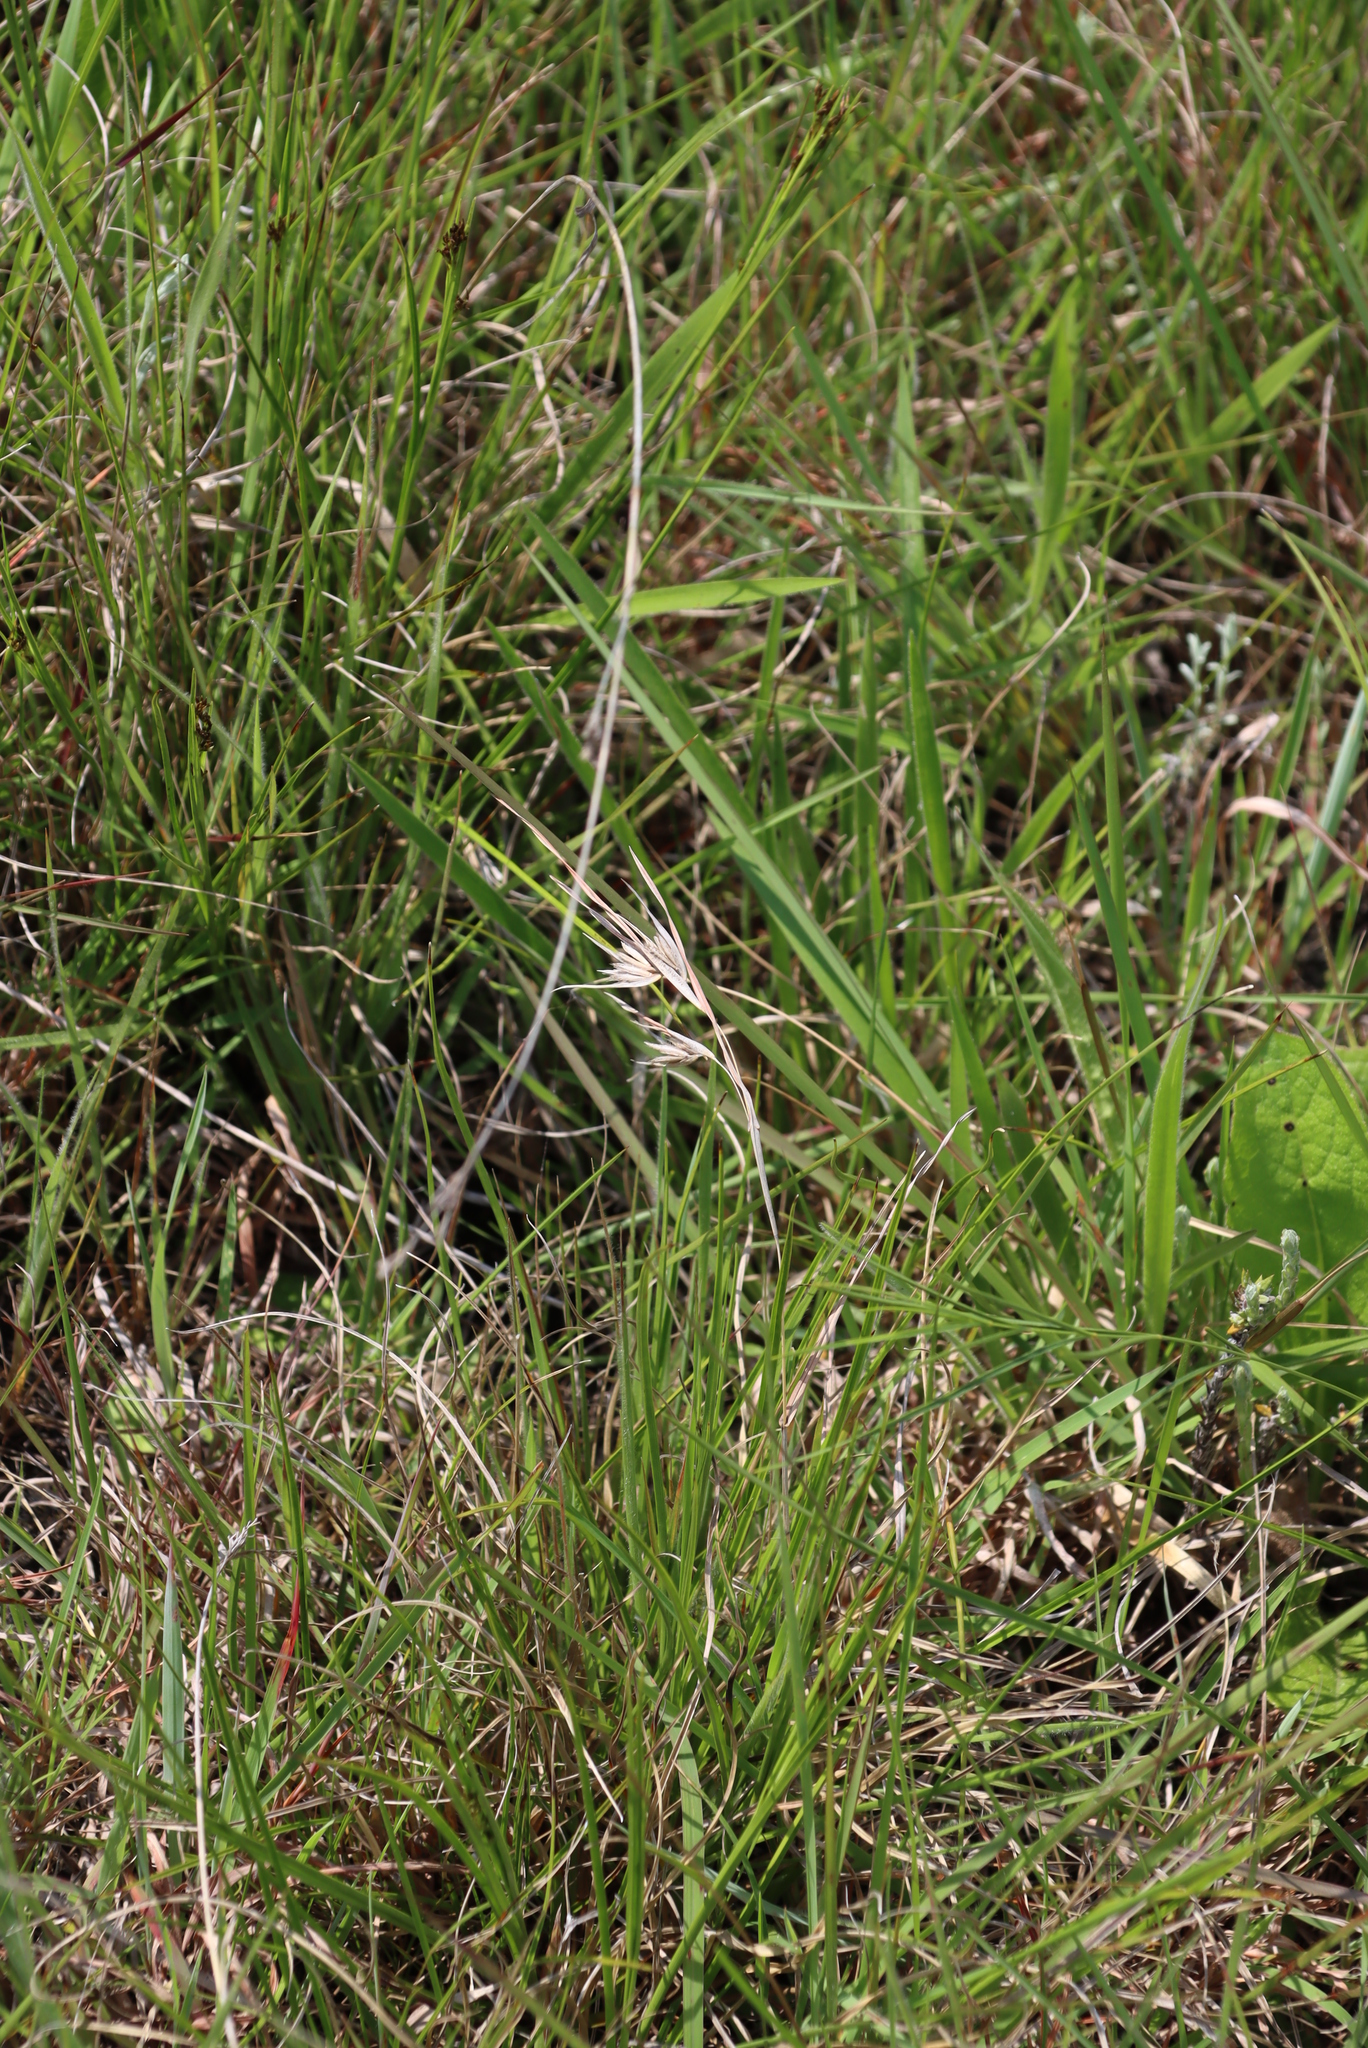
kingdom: Plantae
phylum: Tracheophyta
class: Liliopsida
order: Poales
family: Poaceae
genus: Themeda
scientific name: Themeda triandra
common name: Kangaroo grass
